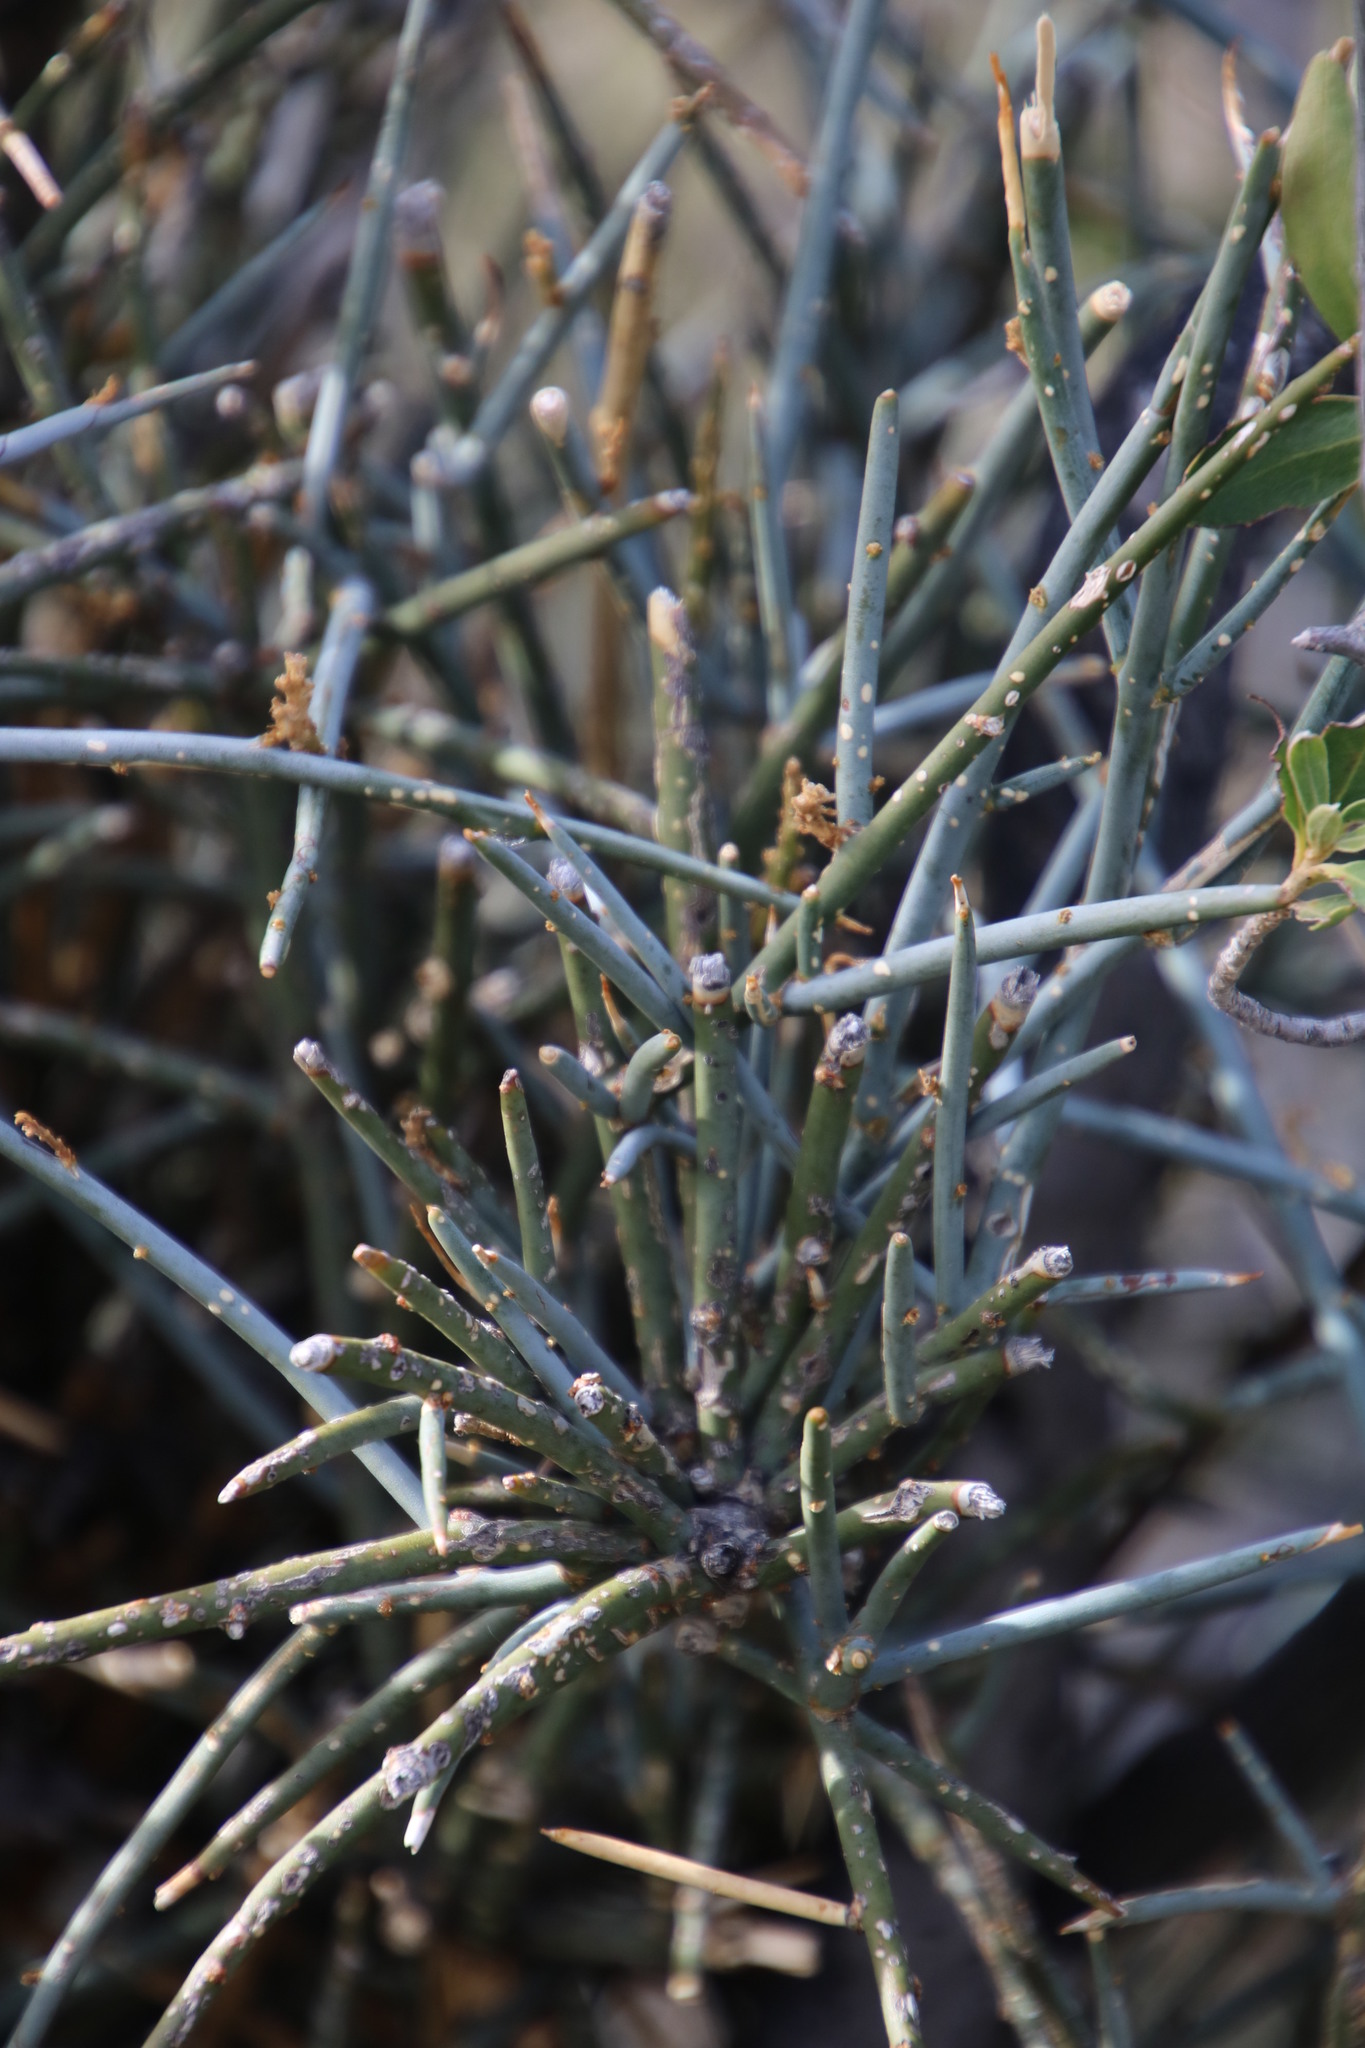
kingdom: Plantae
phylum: Tracheophyta
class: Magnoliopsida
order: Brassicales
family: Capparaceae
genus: Cadaba
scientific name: Cadaba aphylla
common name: Black storm
